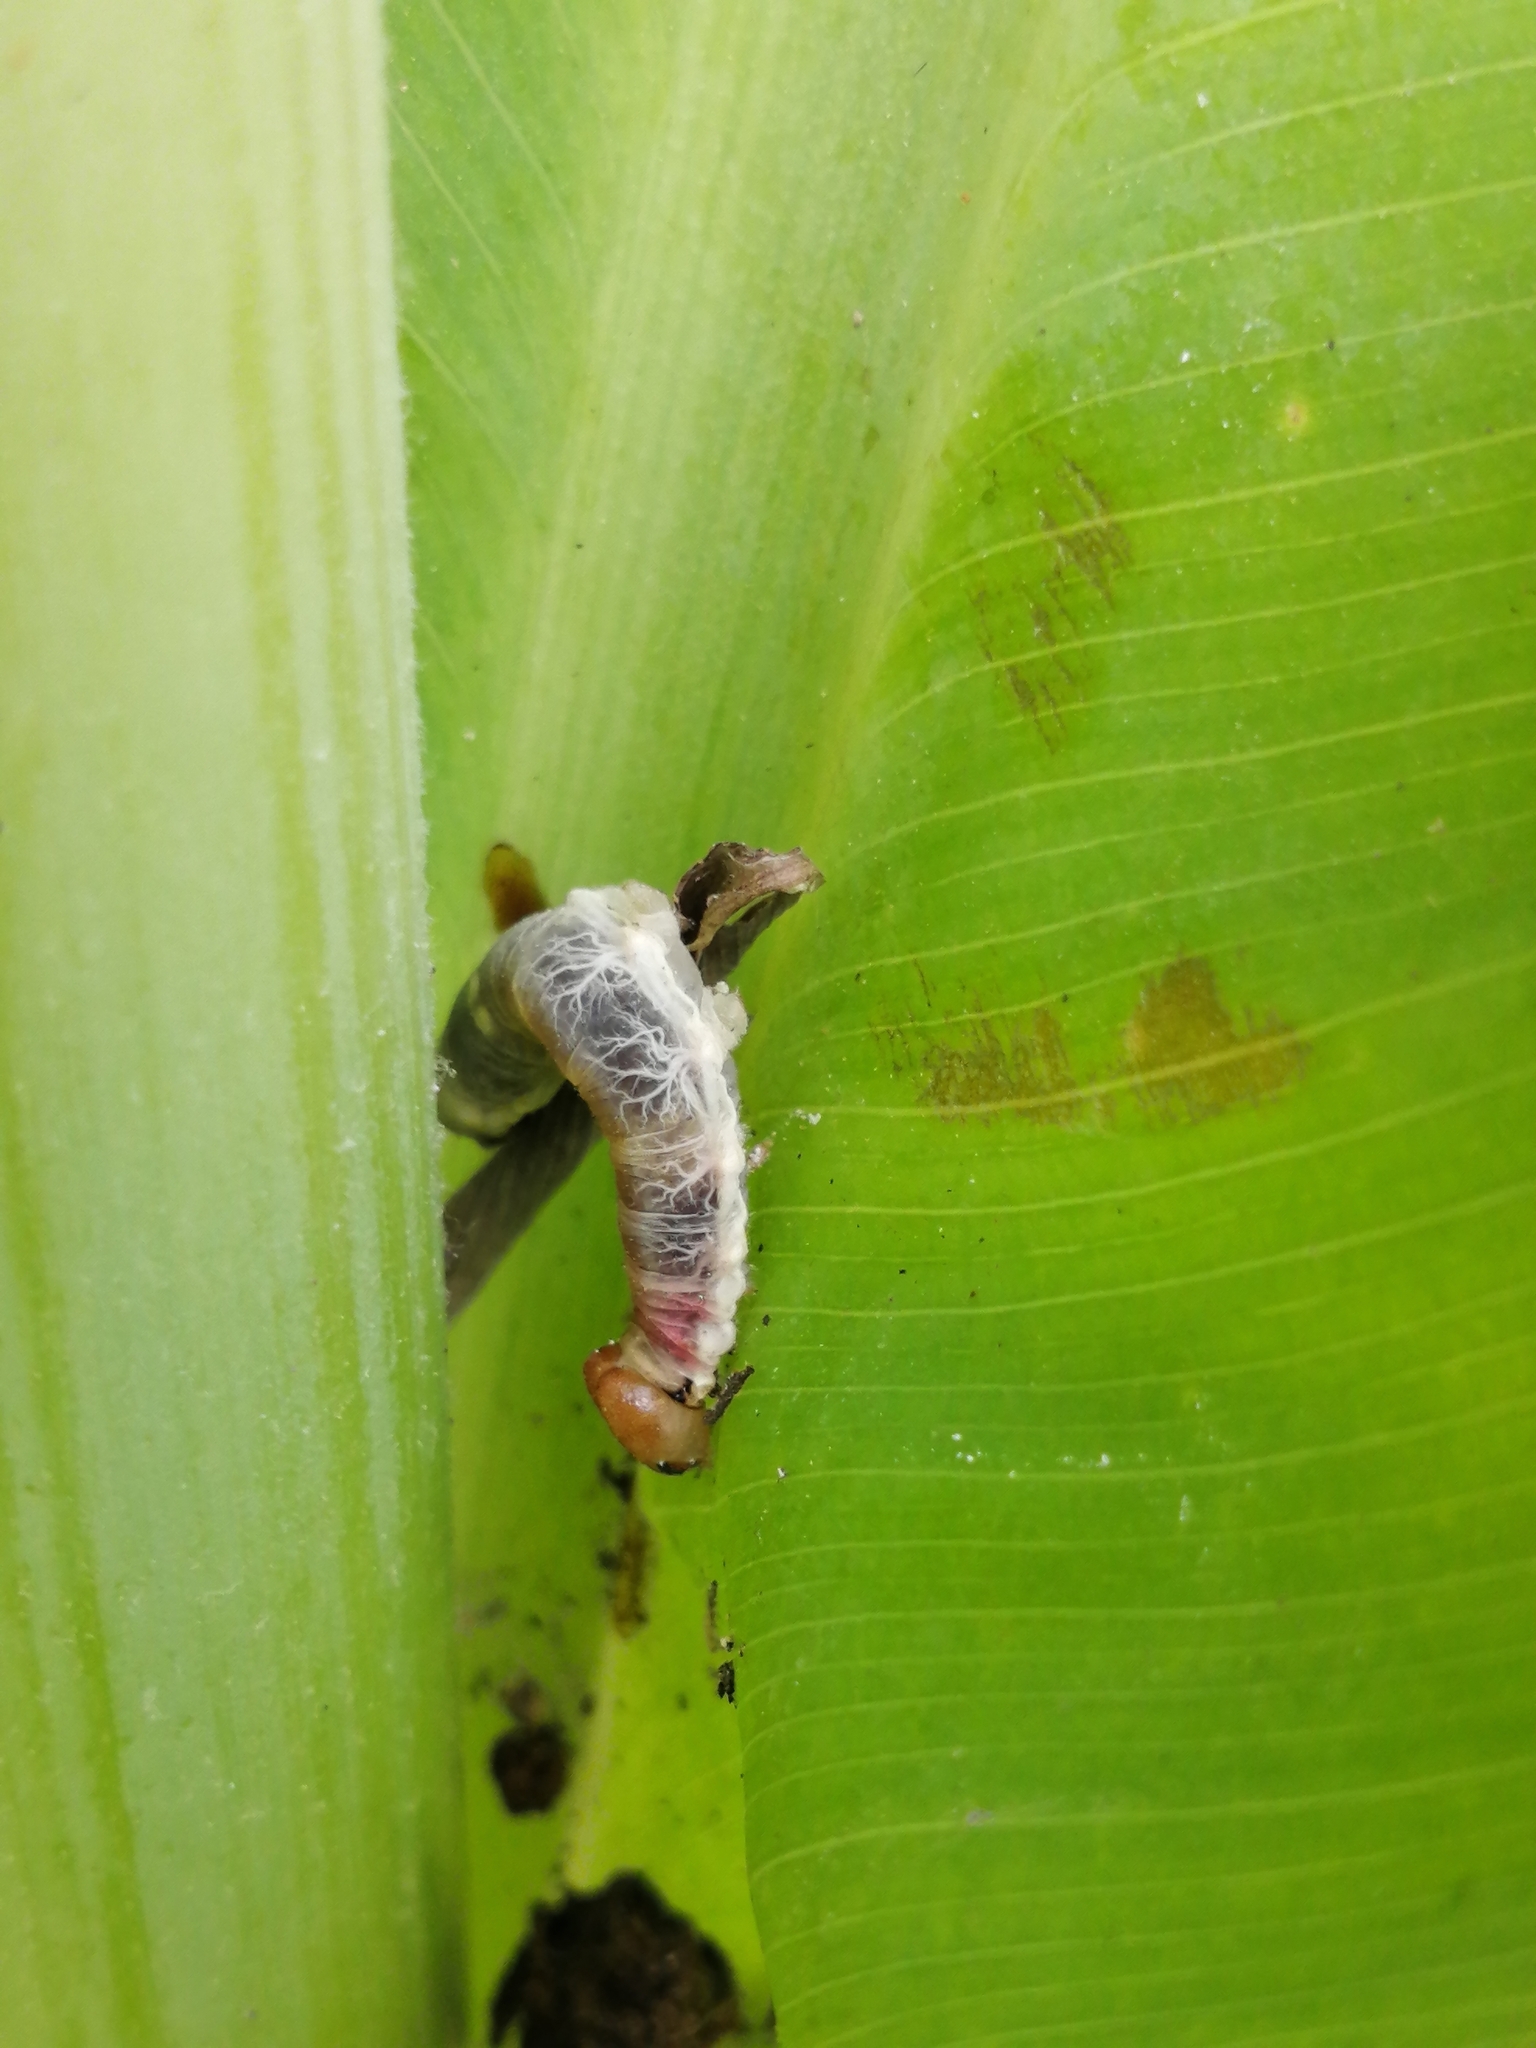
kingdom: Animalia
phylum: Arthropoda
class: Insecta
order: Lepidoptera
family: Hesperiidae
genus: Calpodes
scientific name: Calpodes ethlius
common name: Brazilian skipper
